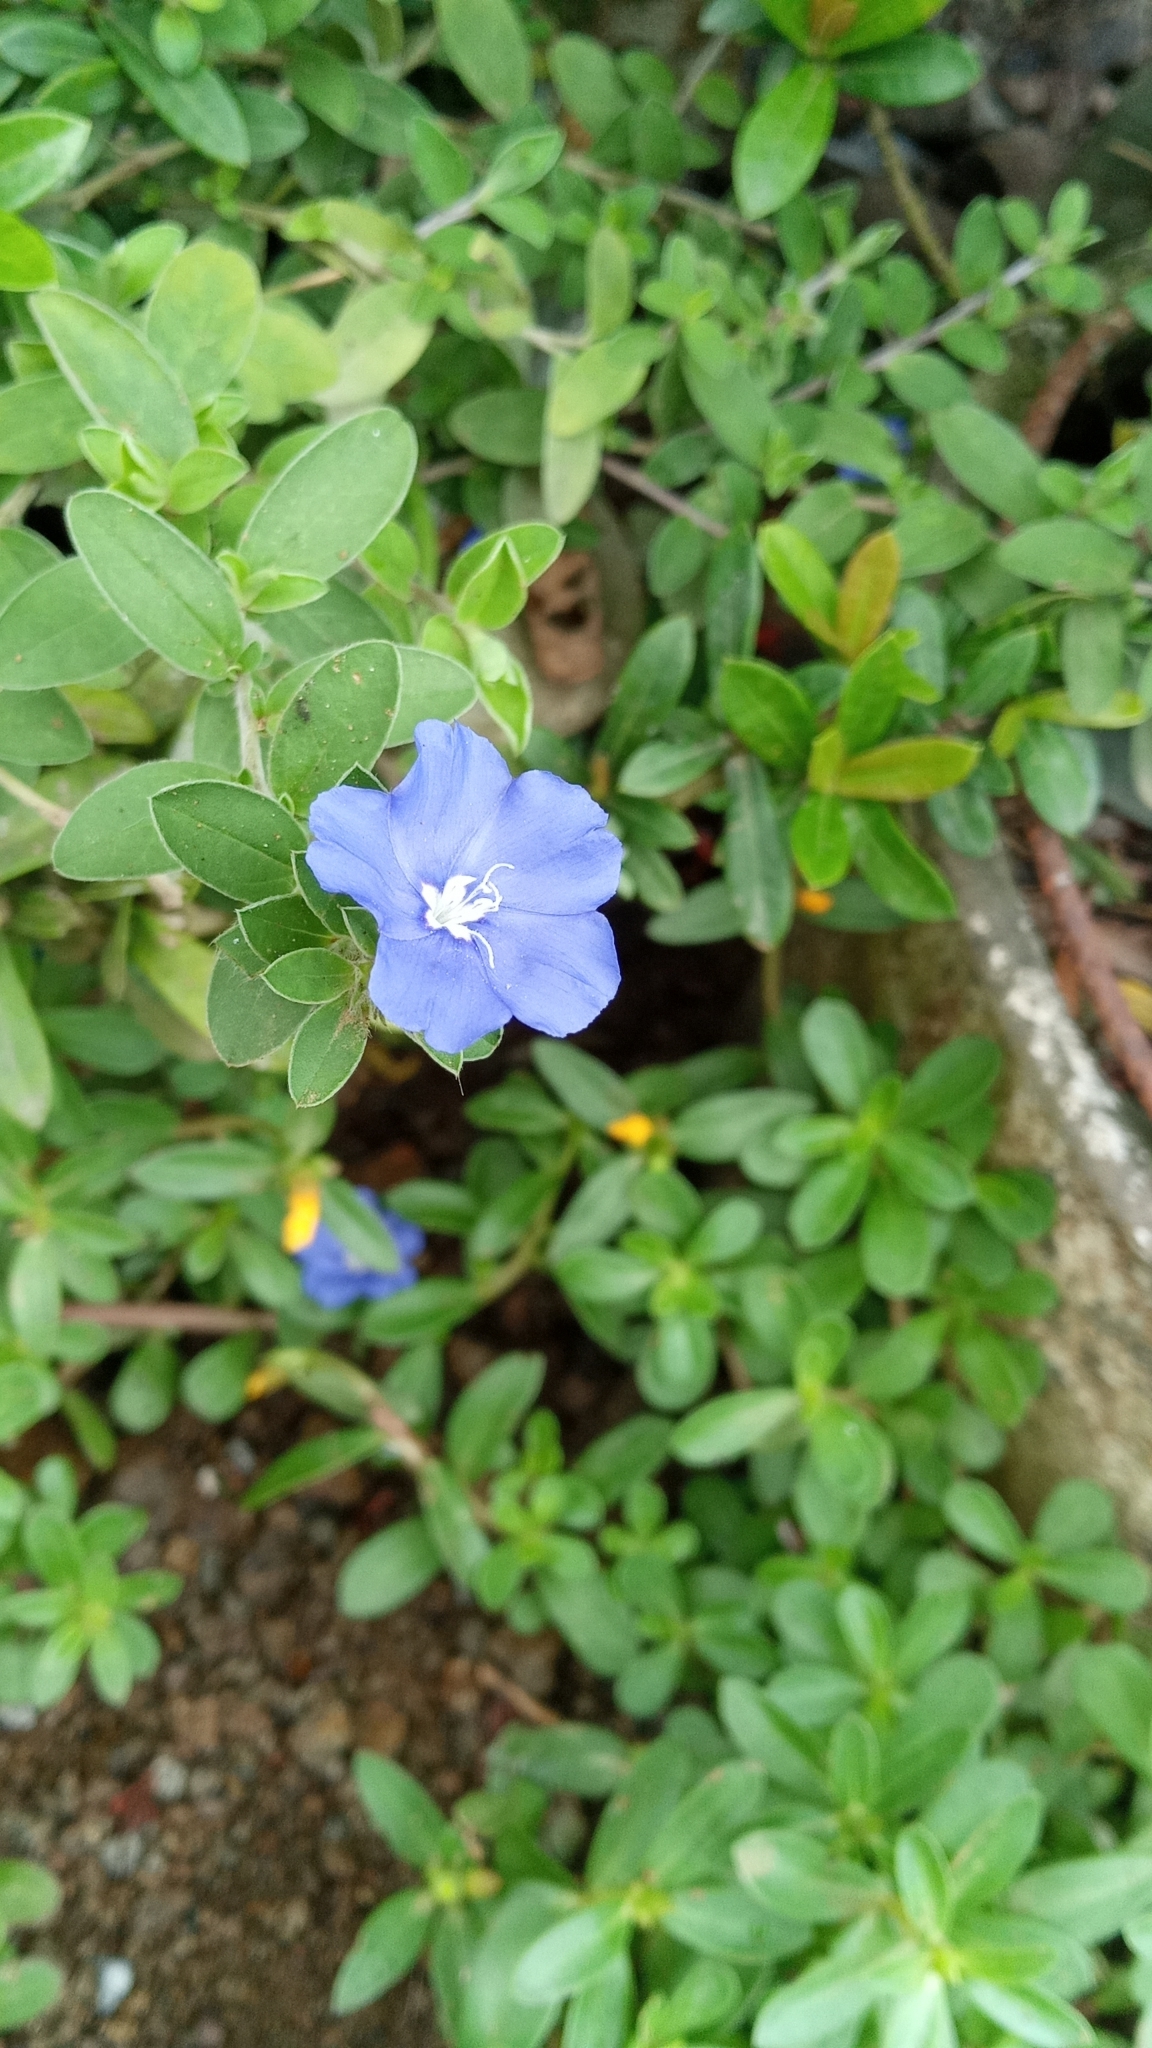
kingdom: Plantae
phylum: Tracheophyta
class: Magnoliopsida
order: Solanales
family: Convolvulaceae
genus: Evolvulus
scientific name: Evolvulus glomeratus
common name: Brazilian dwarf morning-glory
